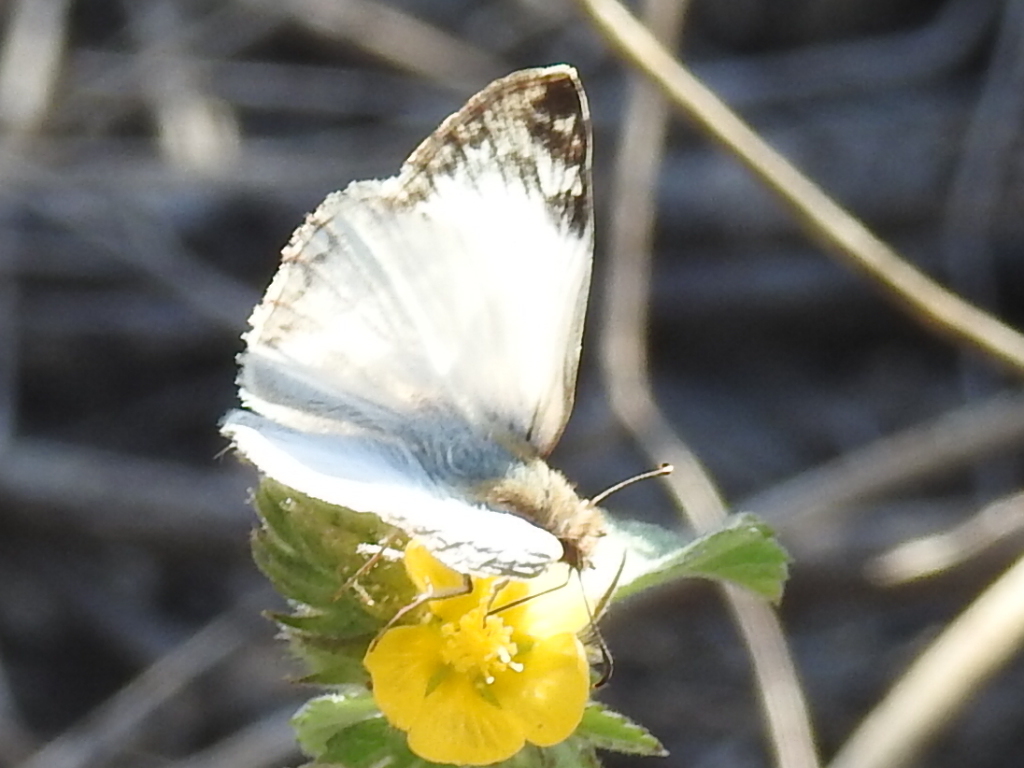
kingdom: Animalia
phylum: Arthropoda
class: Insecta
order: Lepidoptera
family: Hesperiidae
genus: Heliopetes
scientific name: Heliopetes laviana
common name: Laviana white-skipper
